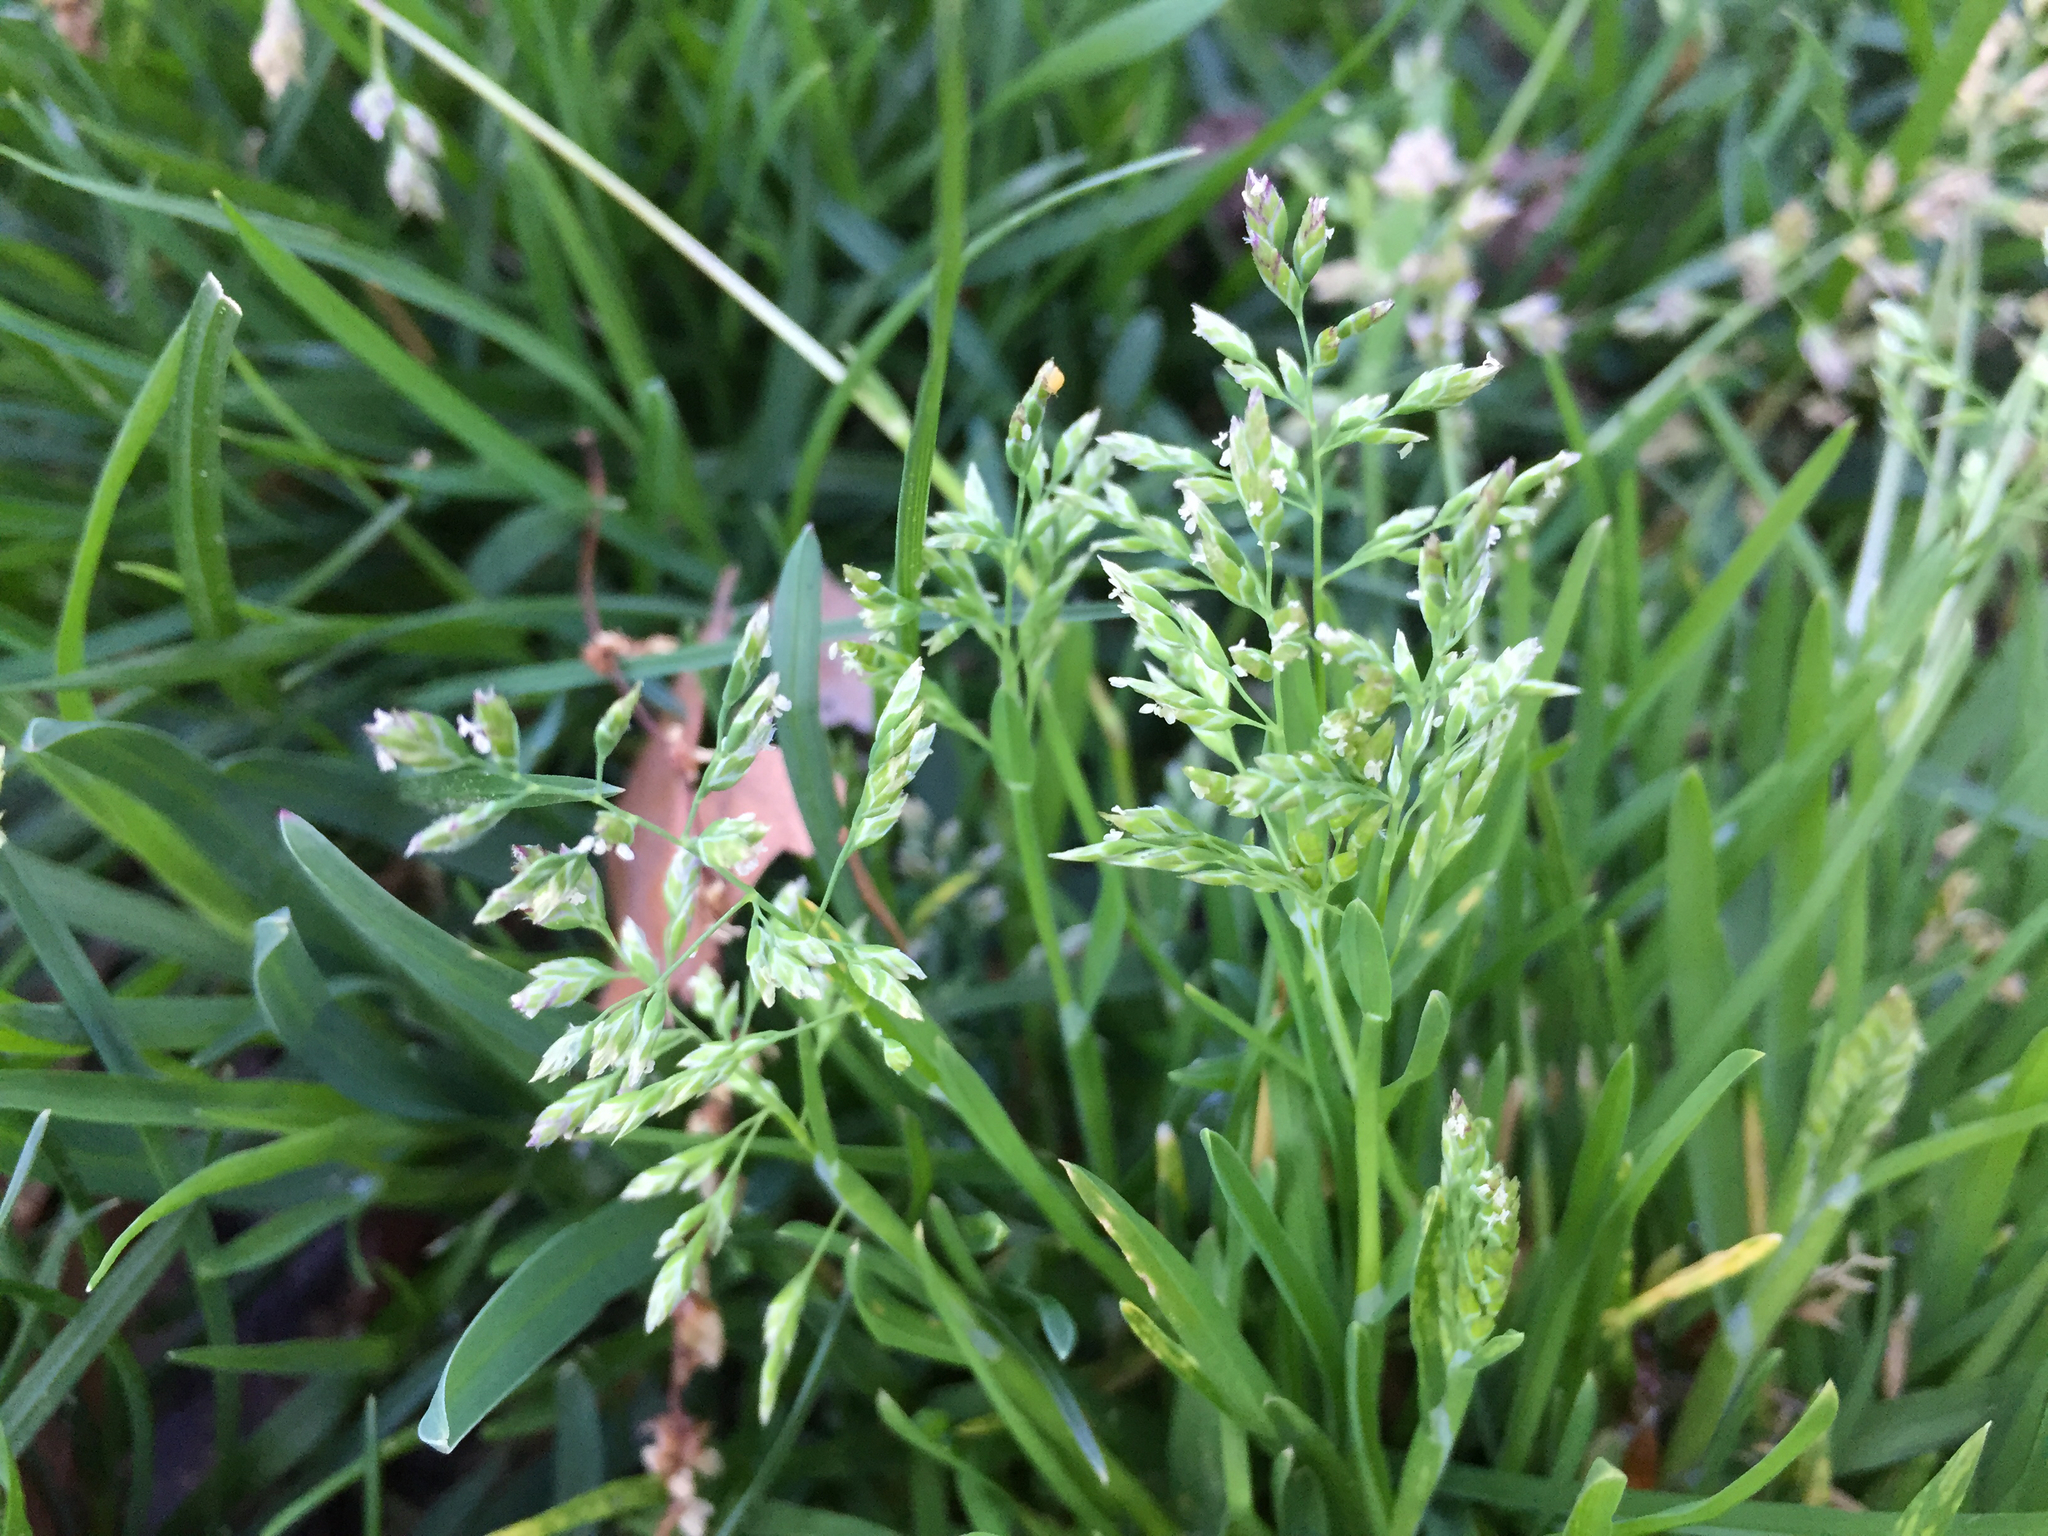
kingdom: Plantae
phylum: Tracheophyta
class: Liliopsida
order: Poales
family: Poaceae
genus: Poa
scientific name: Poa annua
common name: Annual bluegrass
